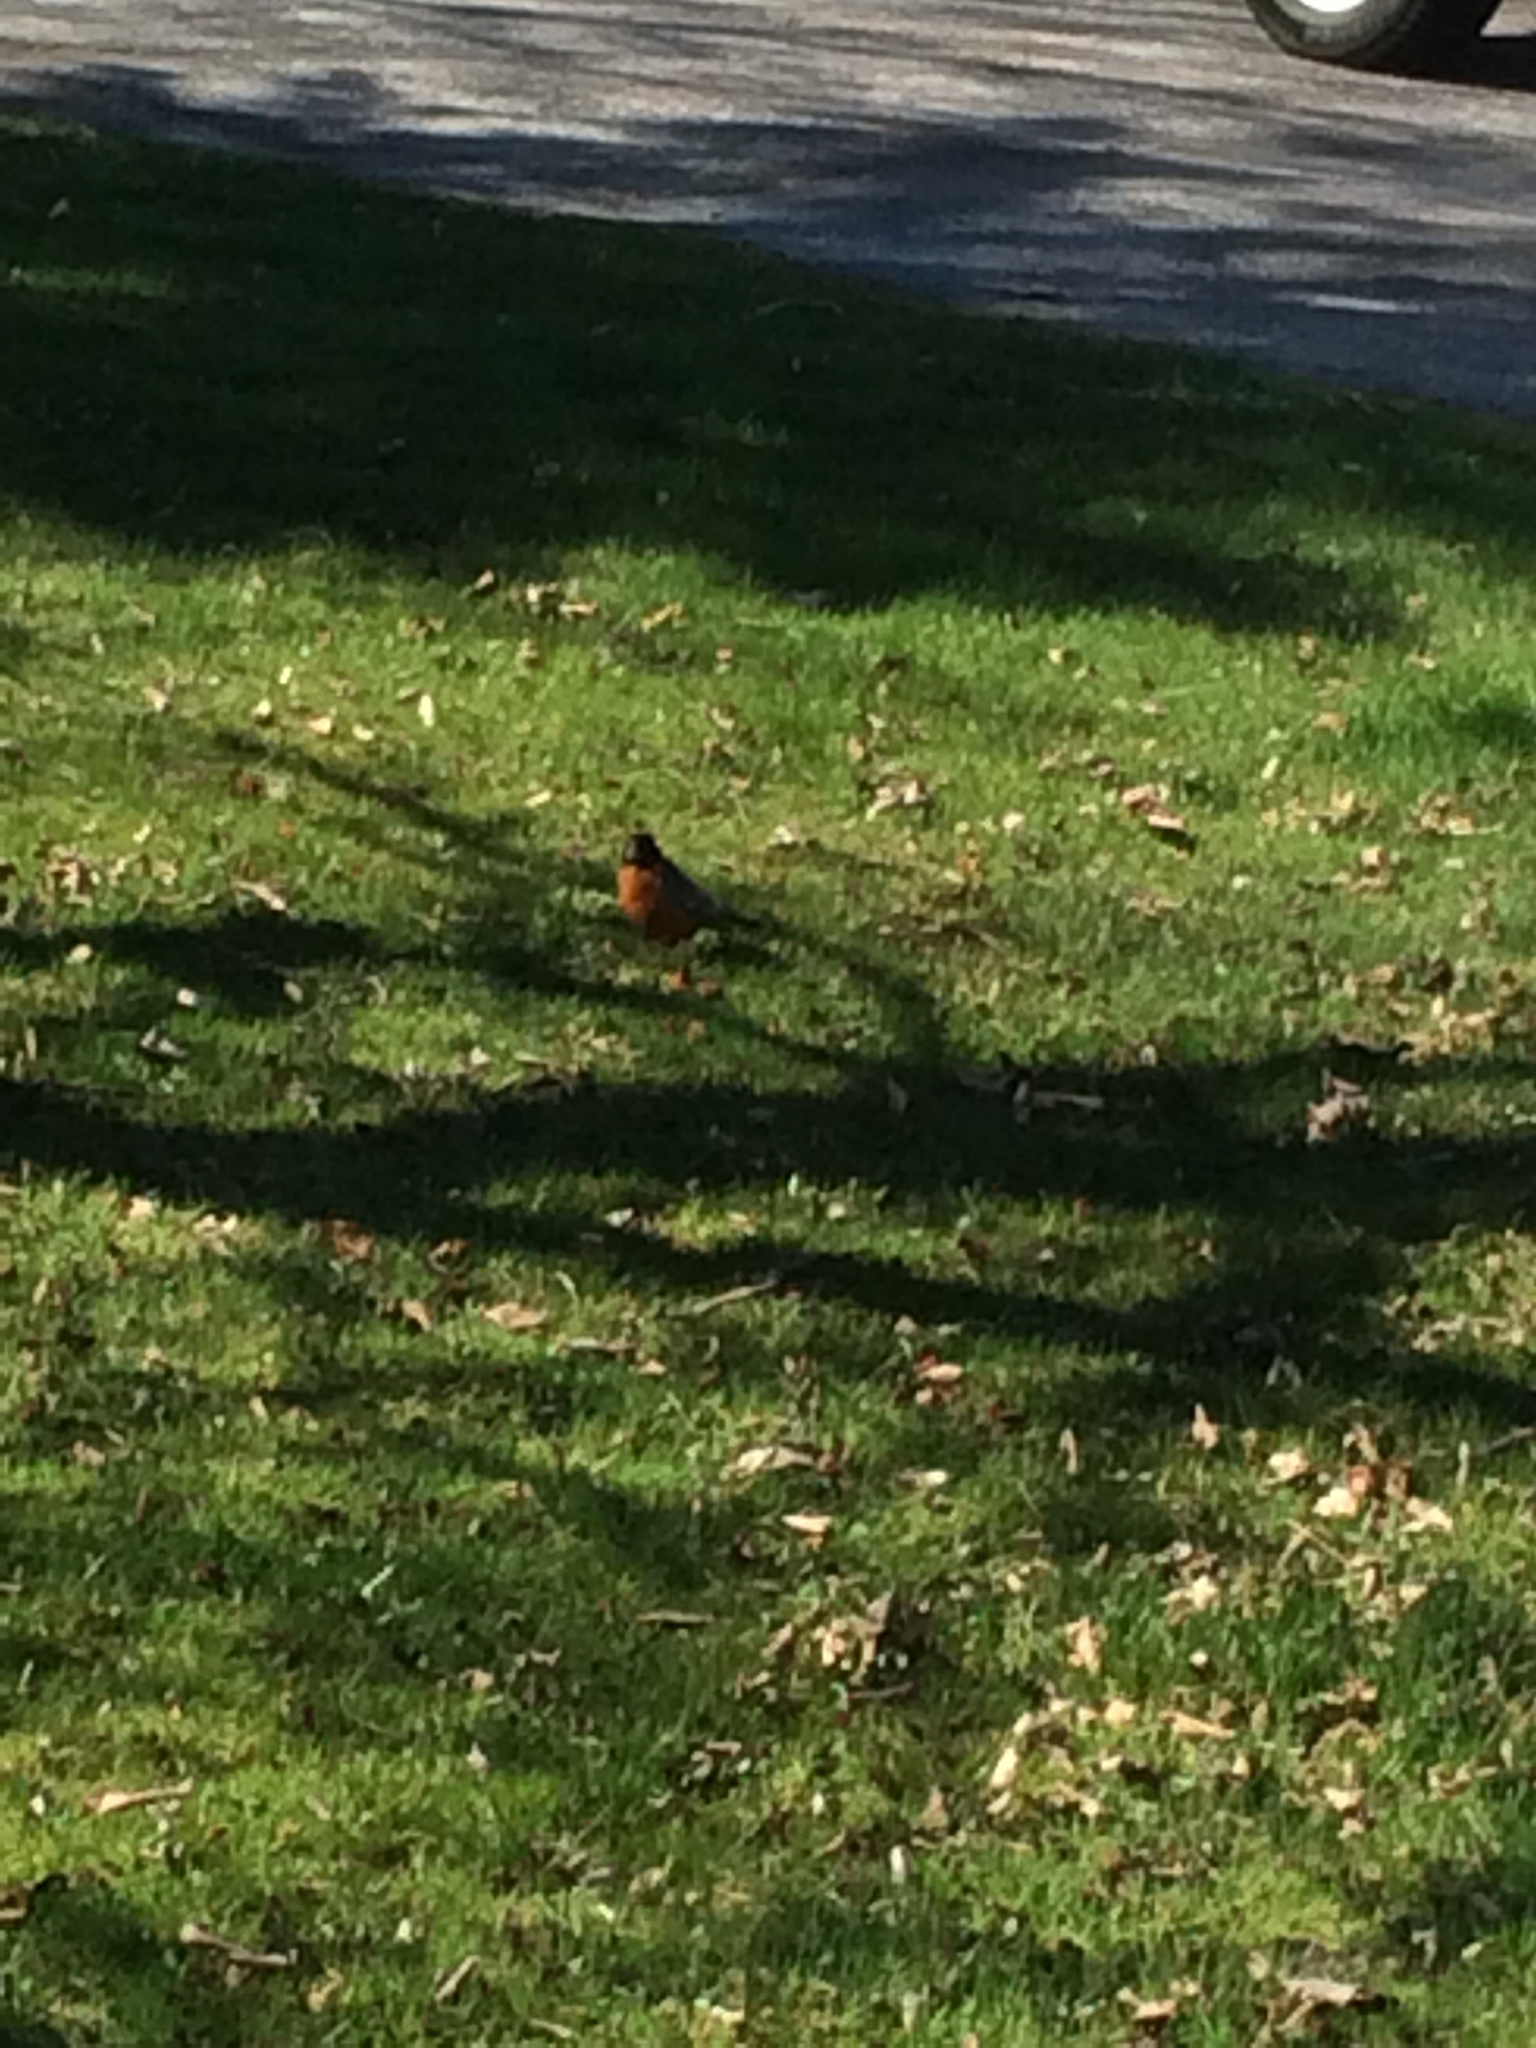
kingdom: Animalia
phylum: Chordata
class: Aves
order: Passeriformes
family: Turdidae
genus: Turdus
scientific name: Turdus migratorius
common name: American robin
